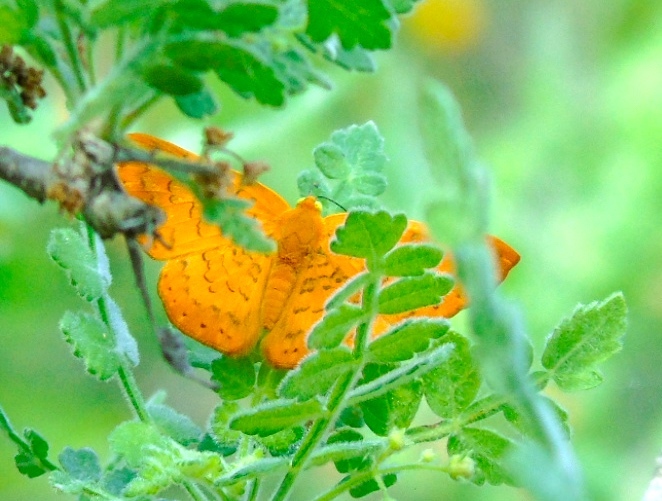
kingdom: Animalia
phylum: Arthropoda
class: Insecta
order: Lepidoptera
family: Lycaenidae
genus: Emesis
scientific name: Emesis
